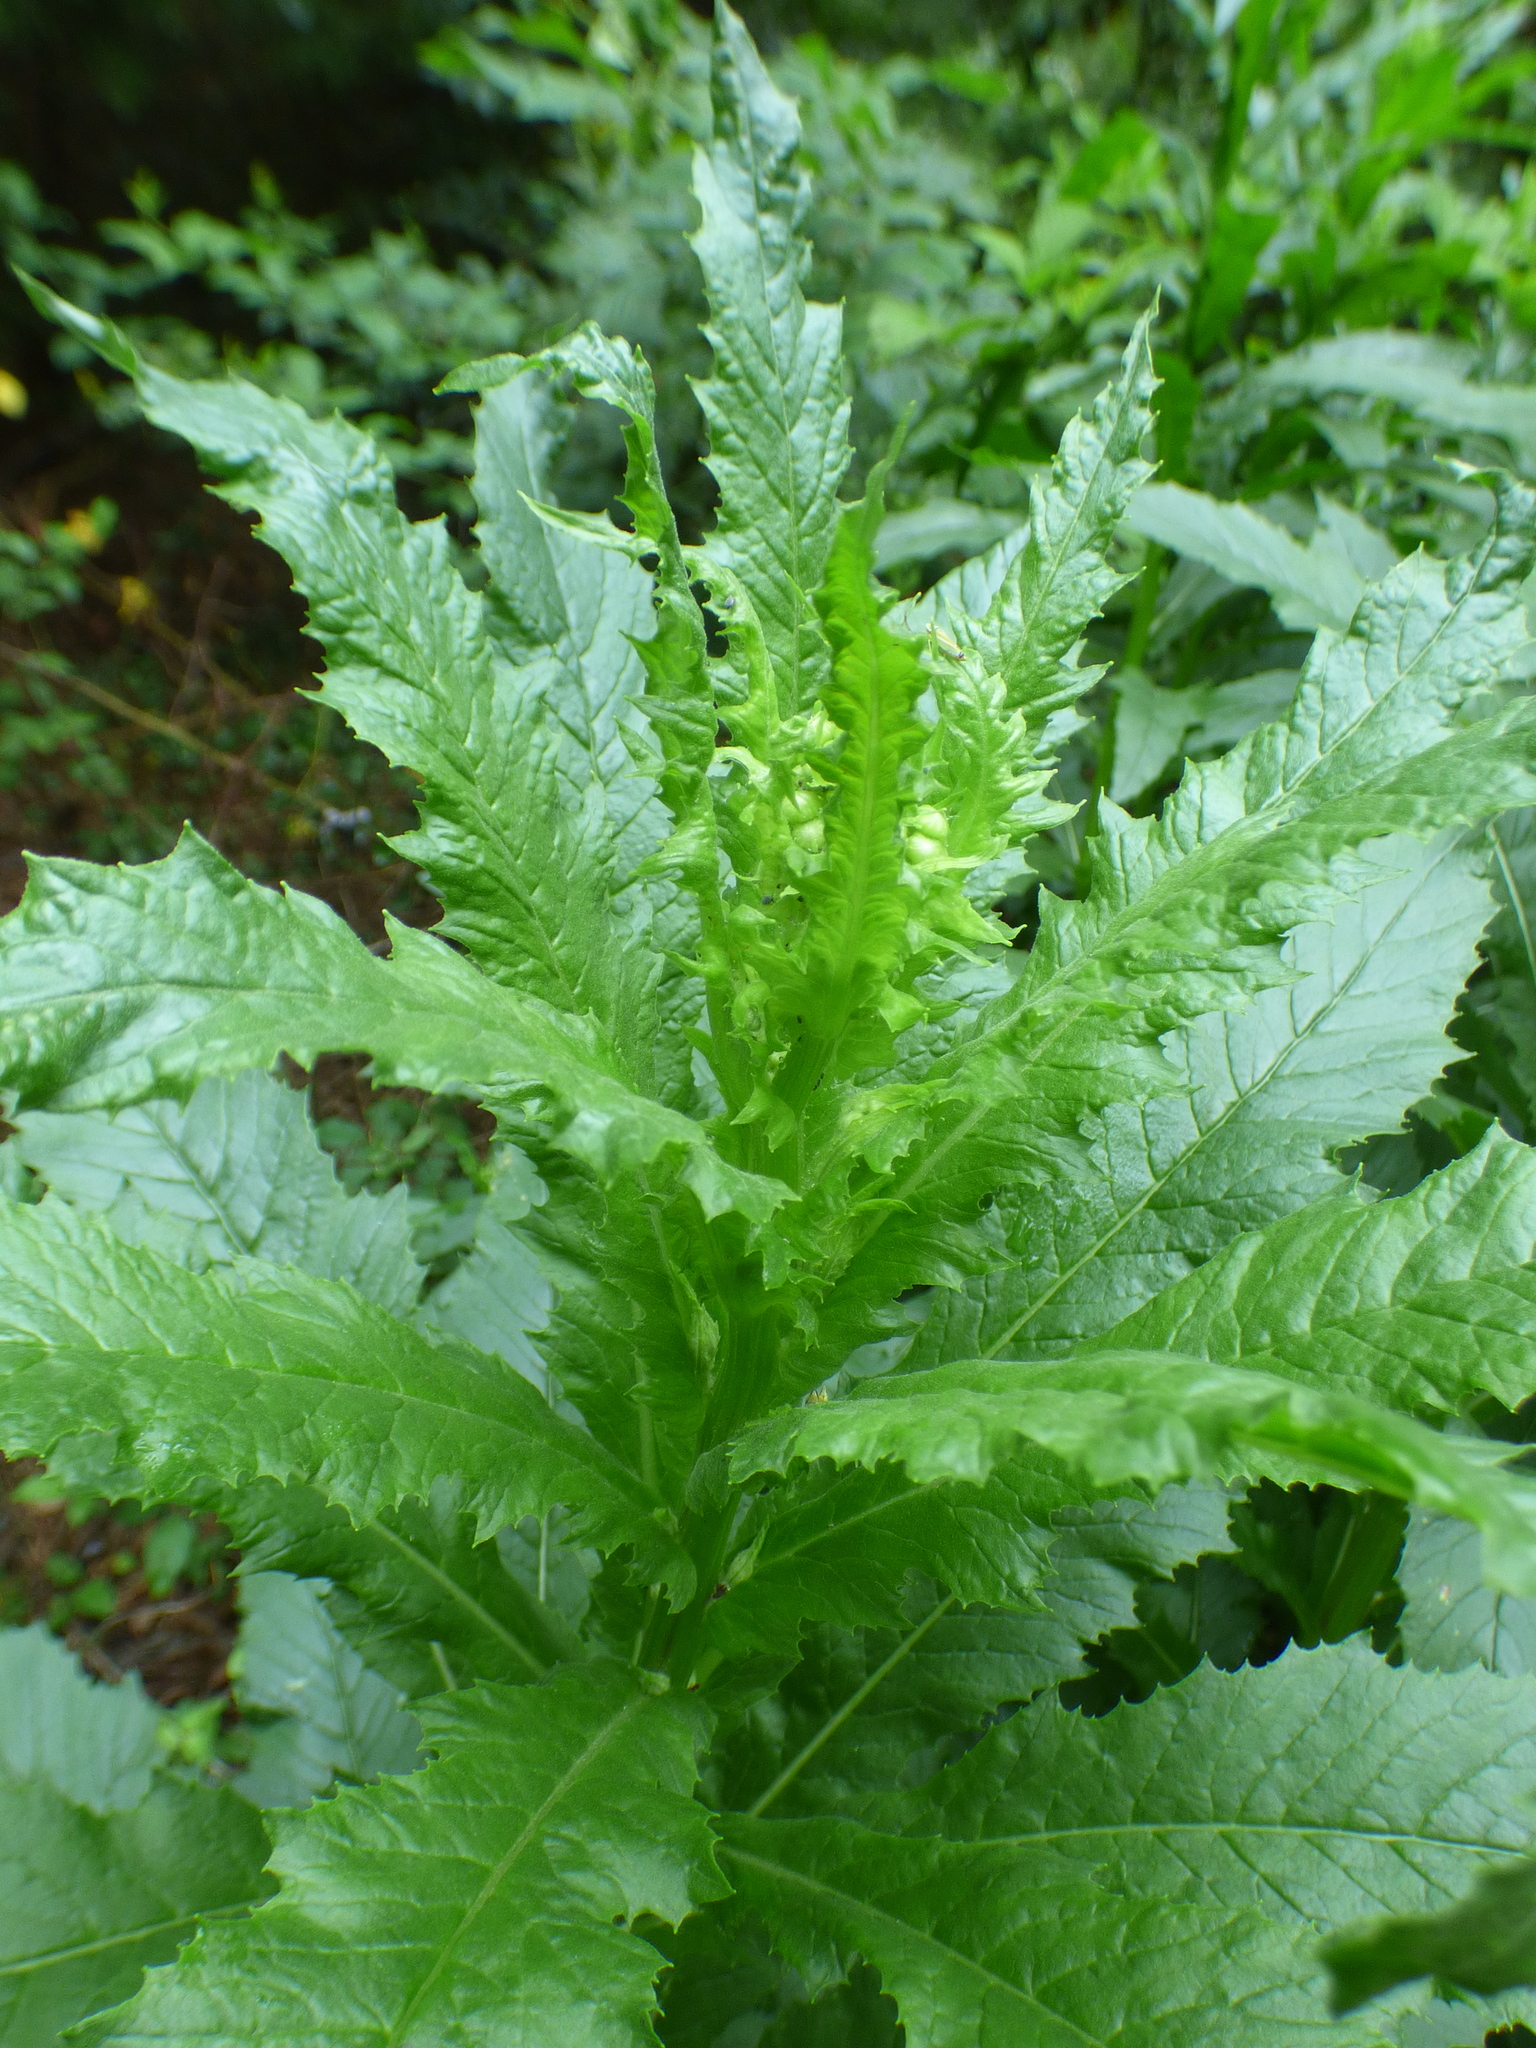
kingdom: Plantae
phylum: Tracheophyta
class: Magnoliopsida
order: Asterales
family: Asteraceae
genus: Erechtites
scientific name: Erechtites hieraciifolius
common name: American burnweed
